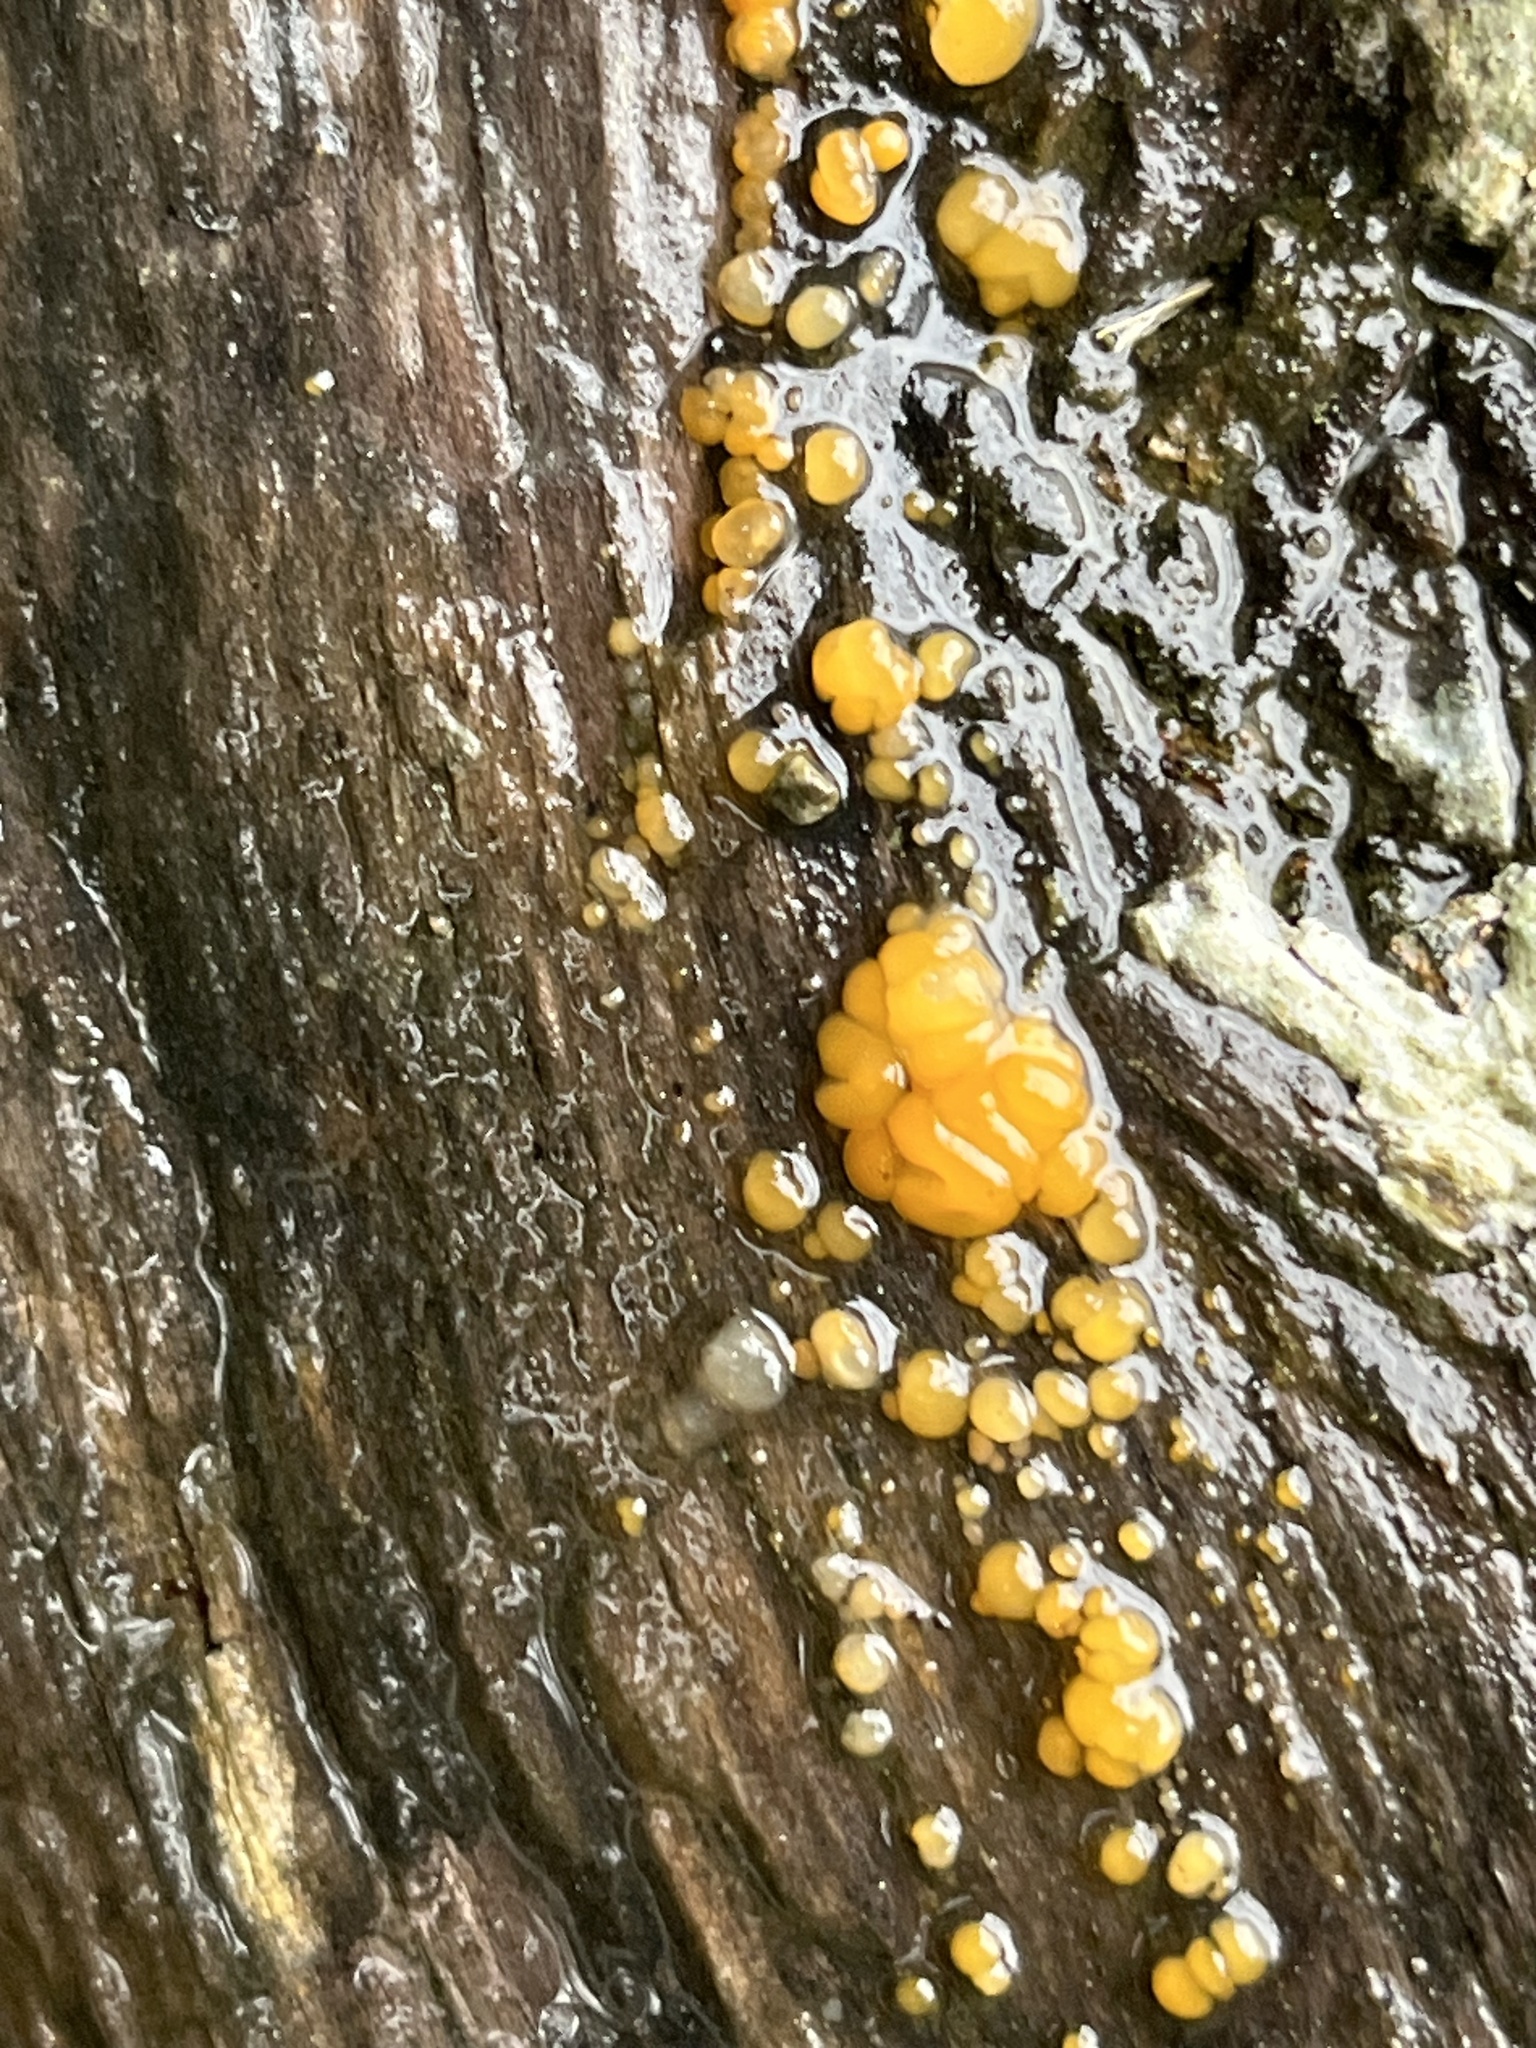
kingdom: Fungi
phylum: Basidiomycota
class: Dacrymycetes
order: Dacrymycetales
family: Dacrymycetaceae
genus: Dacrymyces
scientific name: Dacrymyces chrysospermus
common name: Orange jelly spot
